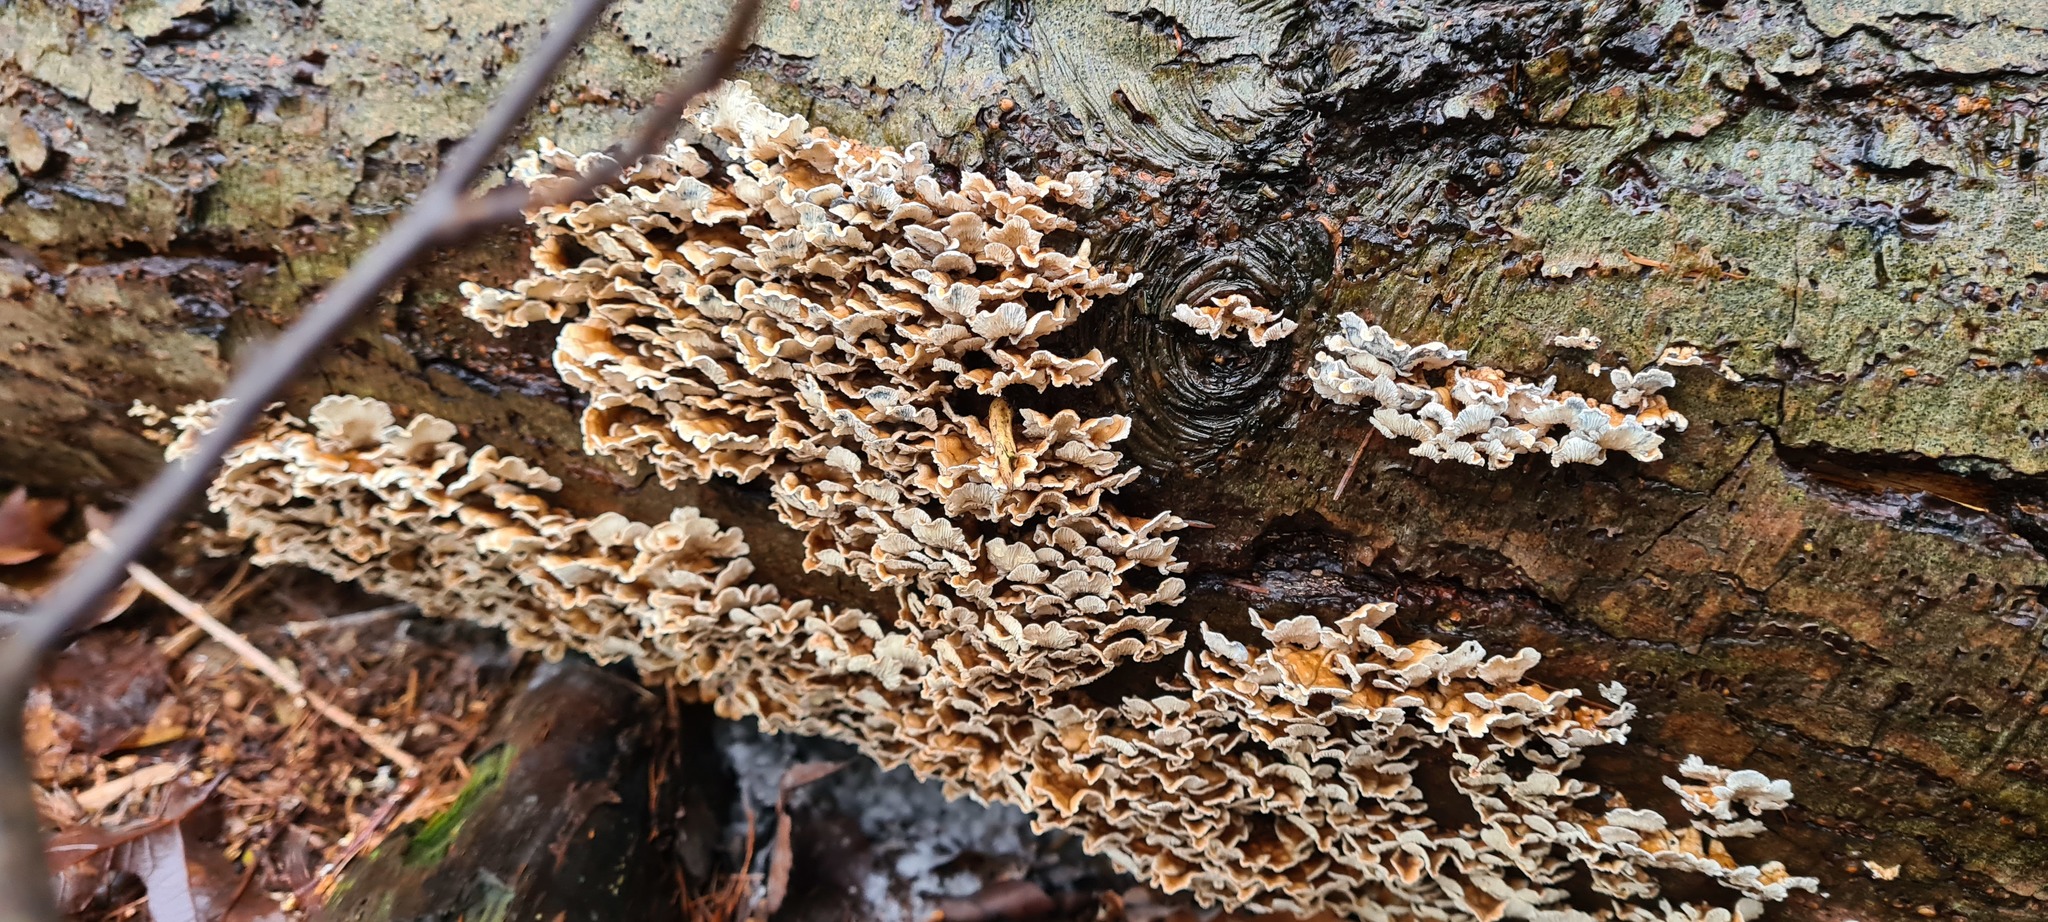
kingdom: Fungi
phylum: Basidiomycota
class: Agaricomycetes
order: Amylocorticiales
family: Amylocorticiaceae
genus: Plicaturopsis
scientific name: Plicaturopsis crispa
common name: Crimped gill
